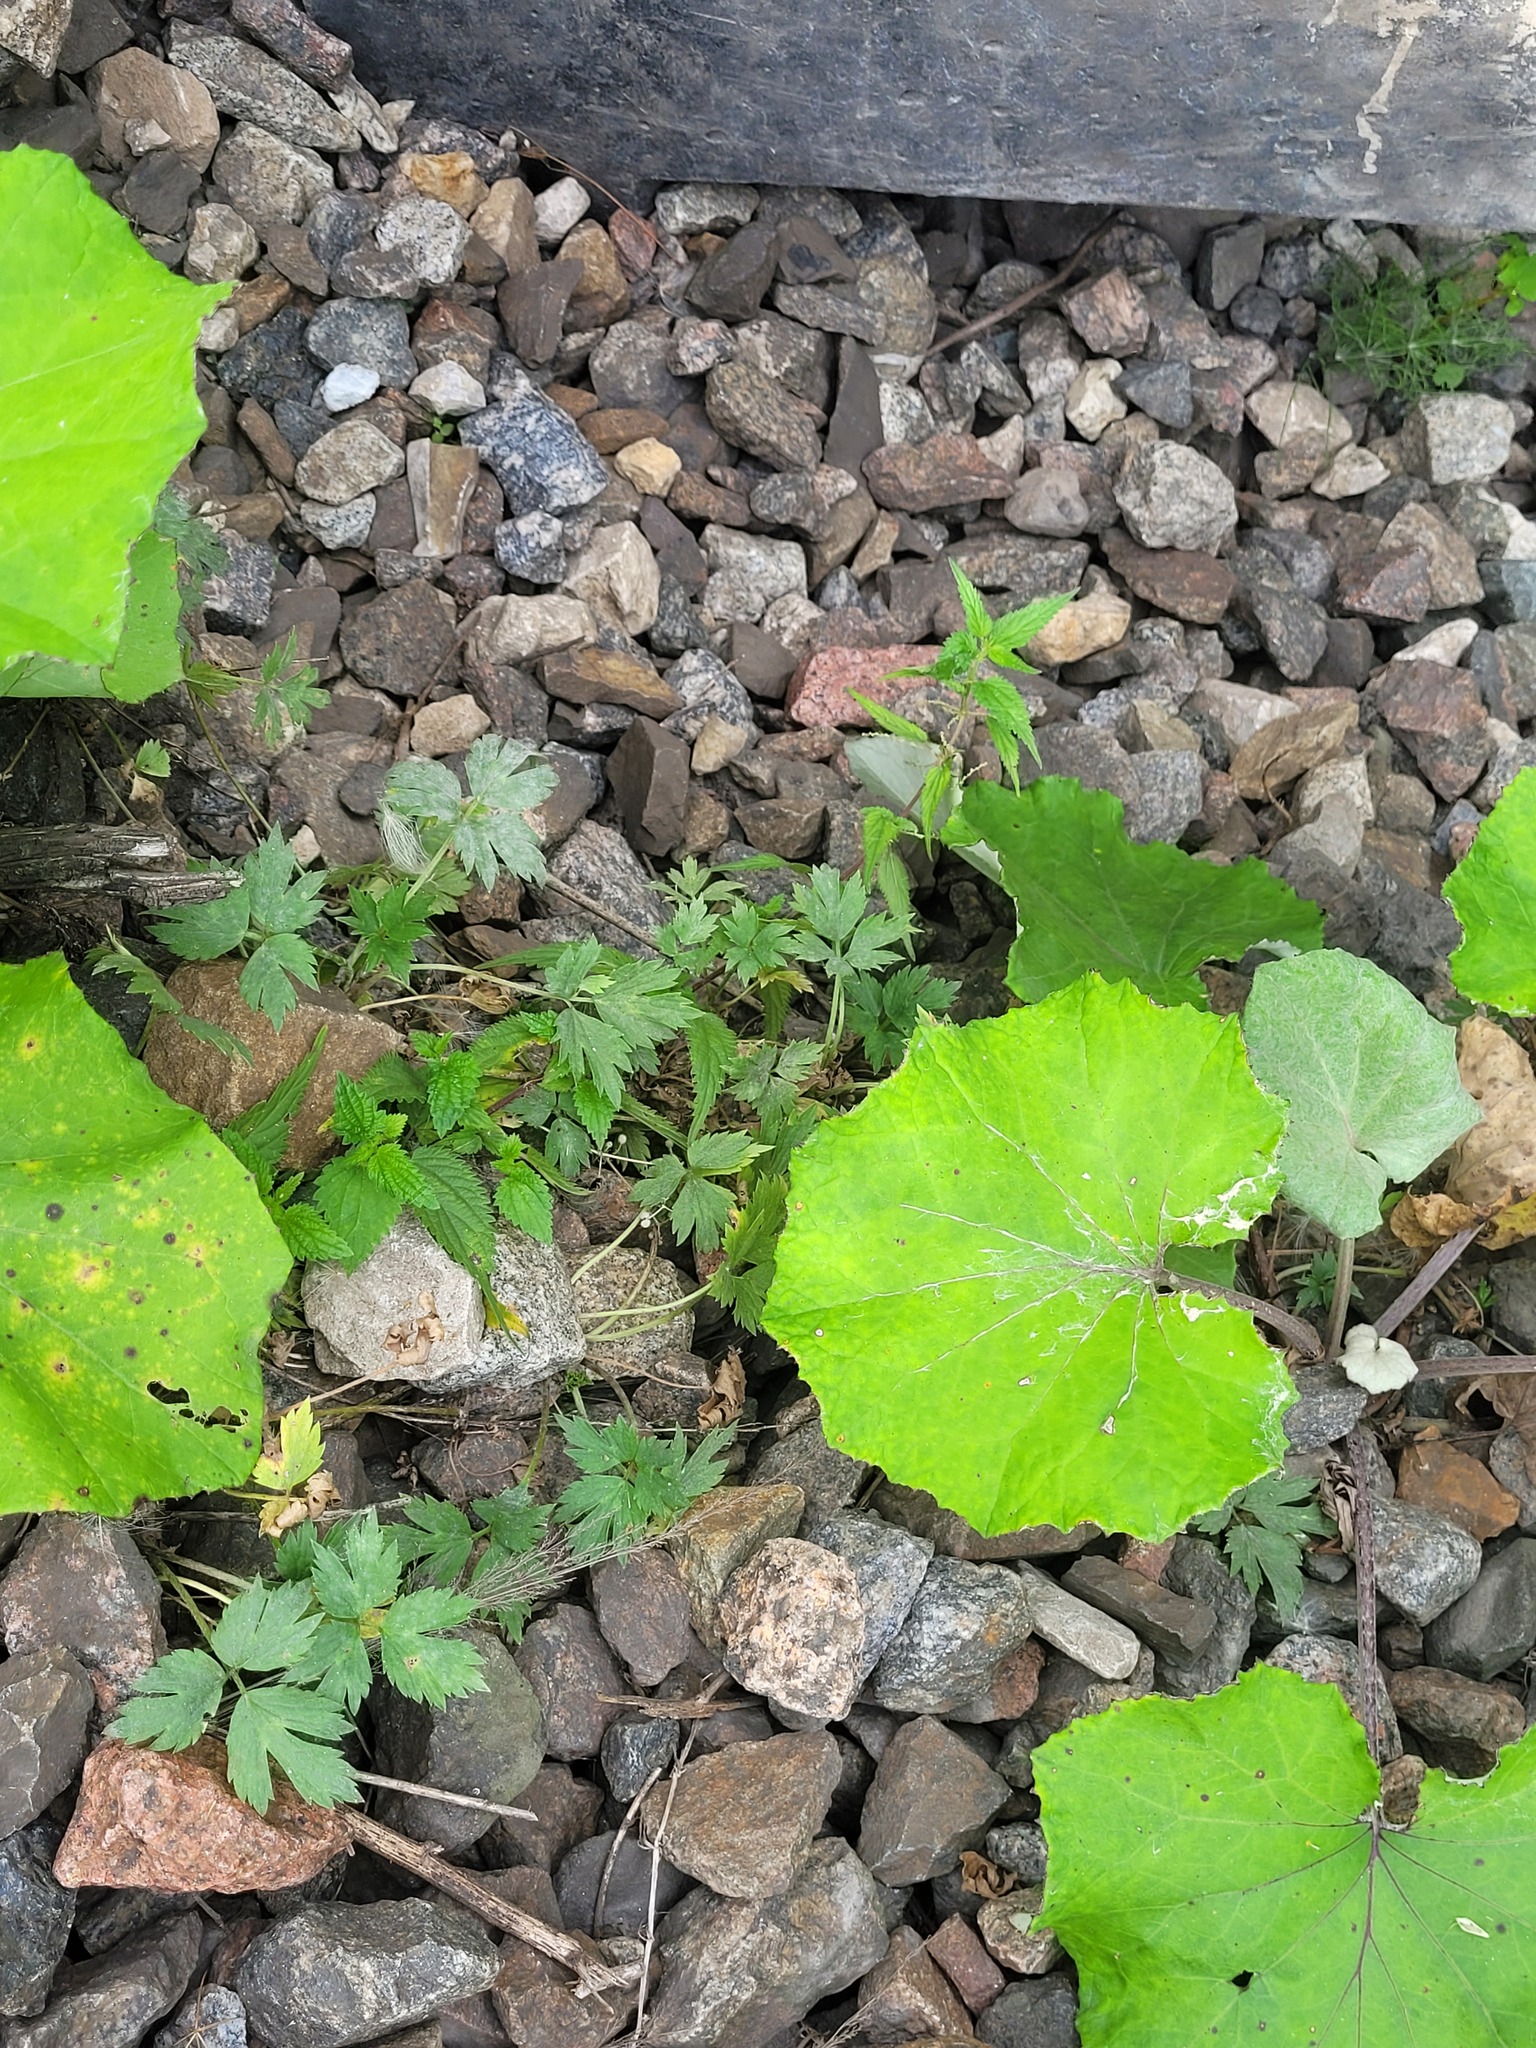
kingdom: Plantae
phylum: Tracheophyta
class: Magnoliopsida
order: Ranunculales
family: Ranunculaceae
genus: Ranunculus
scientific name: Ranunculus repens
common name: Creeping buttercup
